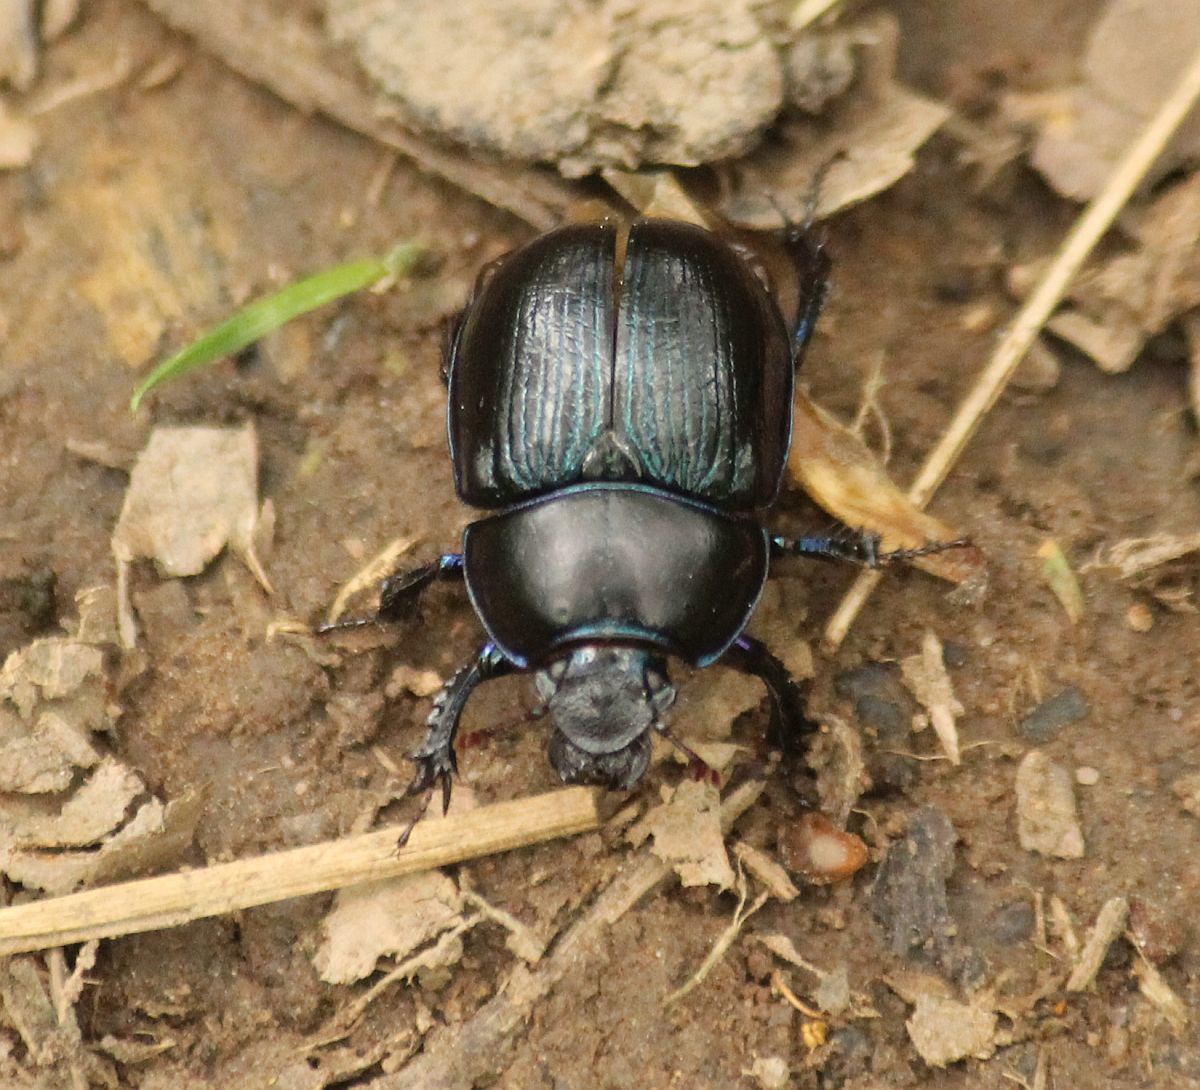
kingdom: Animalia
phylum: Arthropoda
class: Insecta
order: Coleoptera
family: Geotrupidae
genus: Anoplotrupes
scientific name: Anoplotrupes stercorosus
